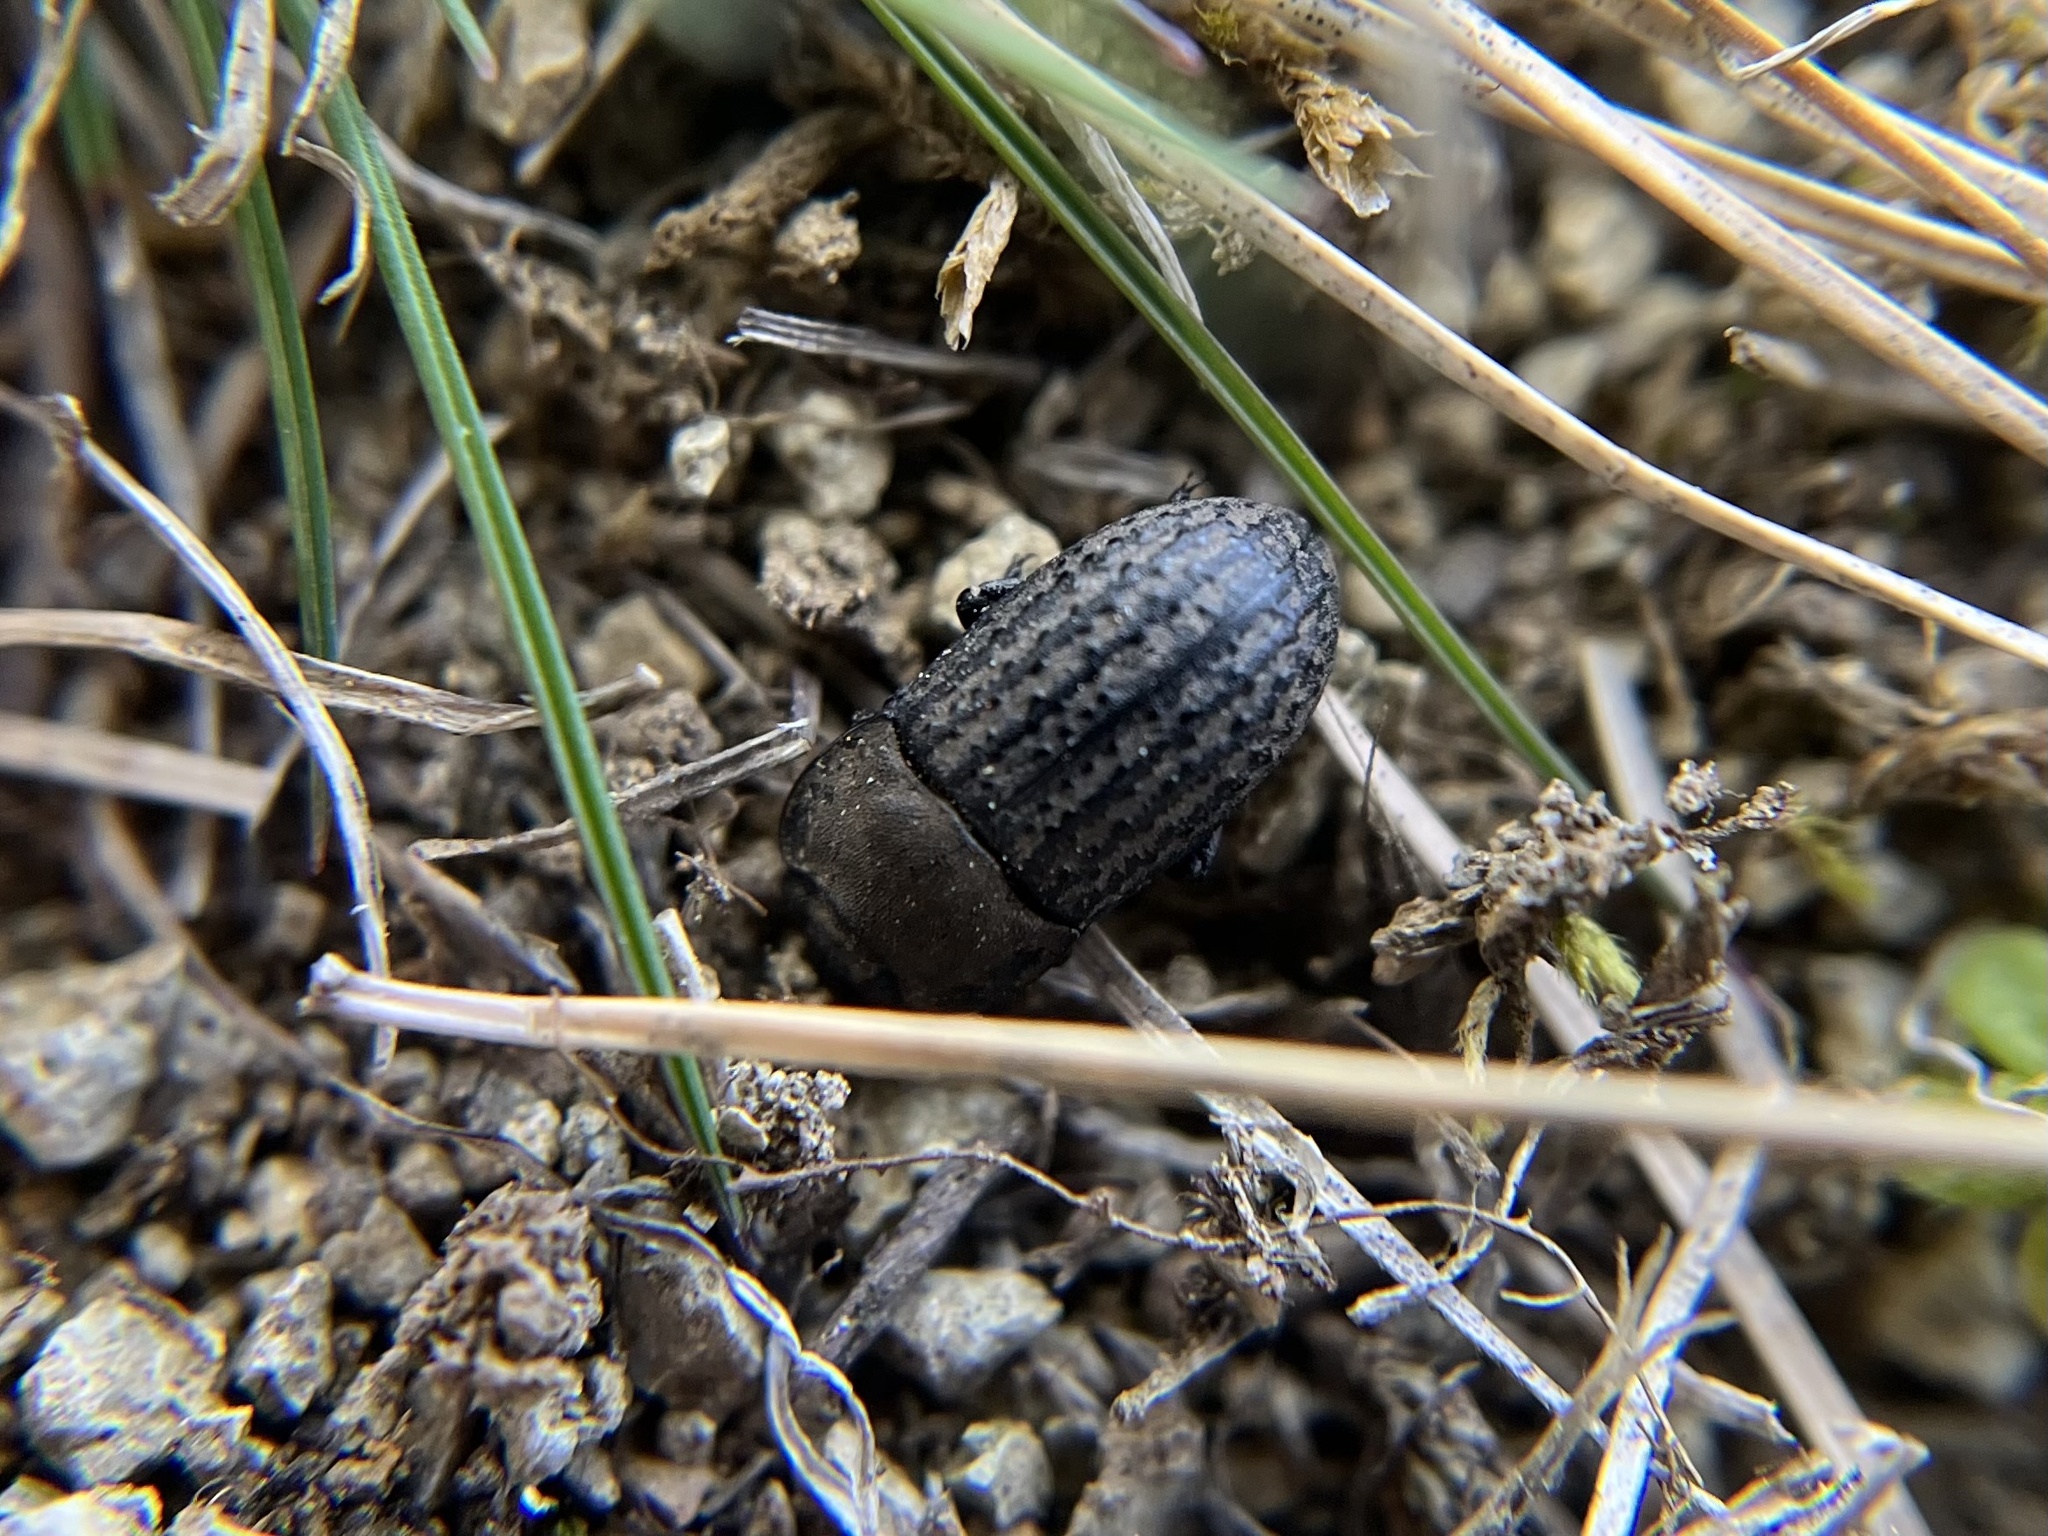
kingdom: Animalia
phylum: Arthropoda
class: Insecta
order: Coleoptera
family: Tenebrionidae
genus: Opatrum
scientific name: Opatrum sabulosum
